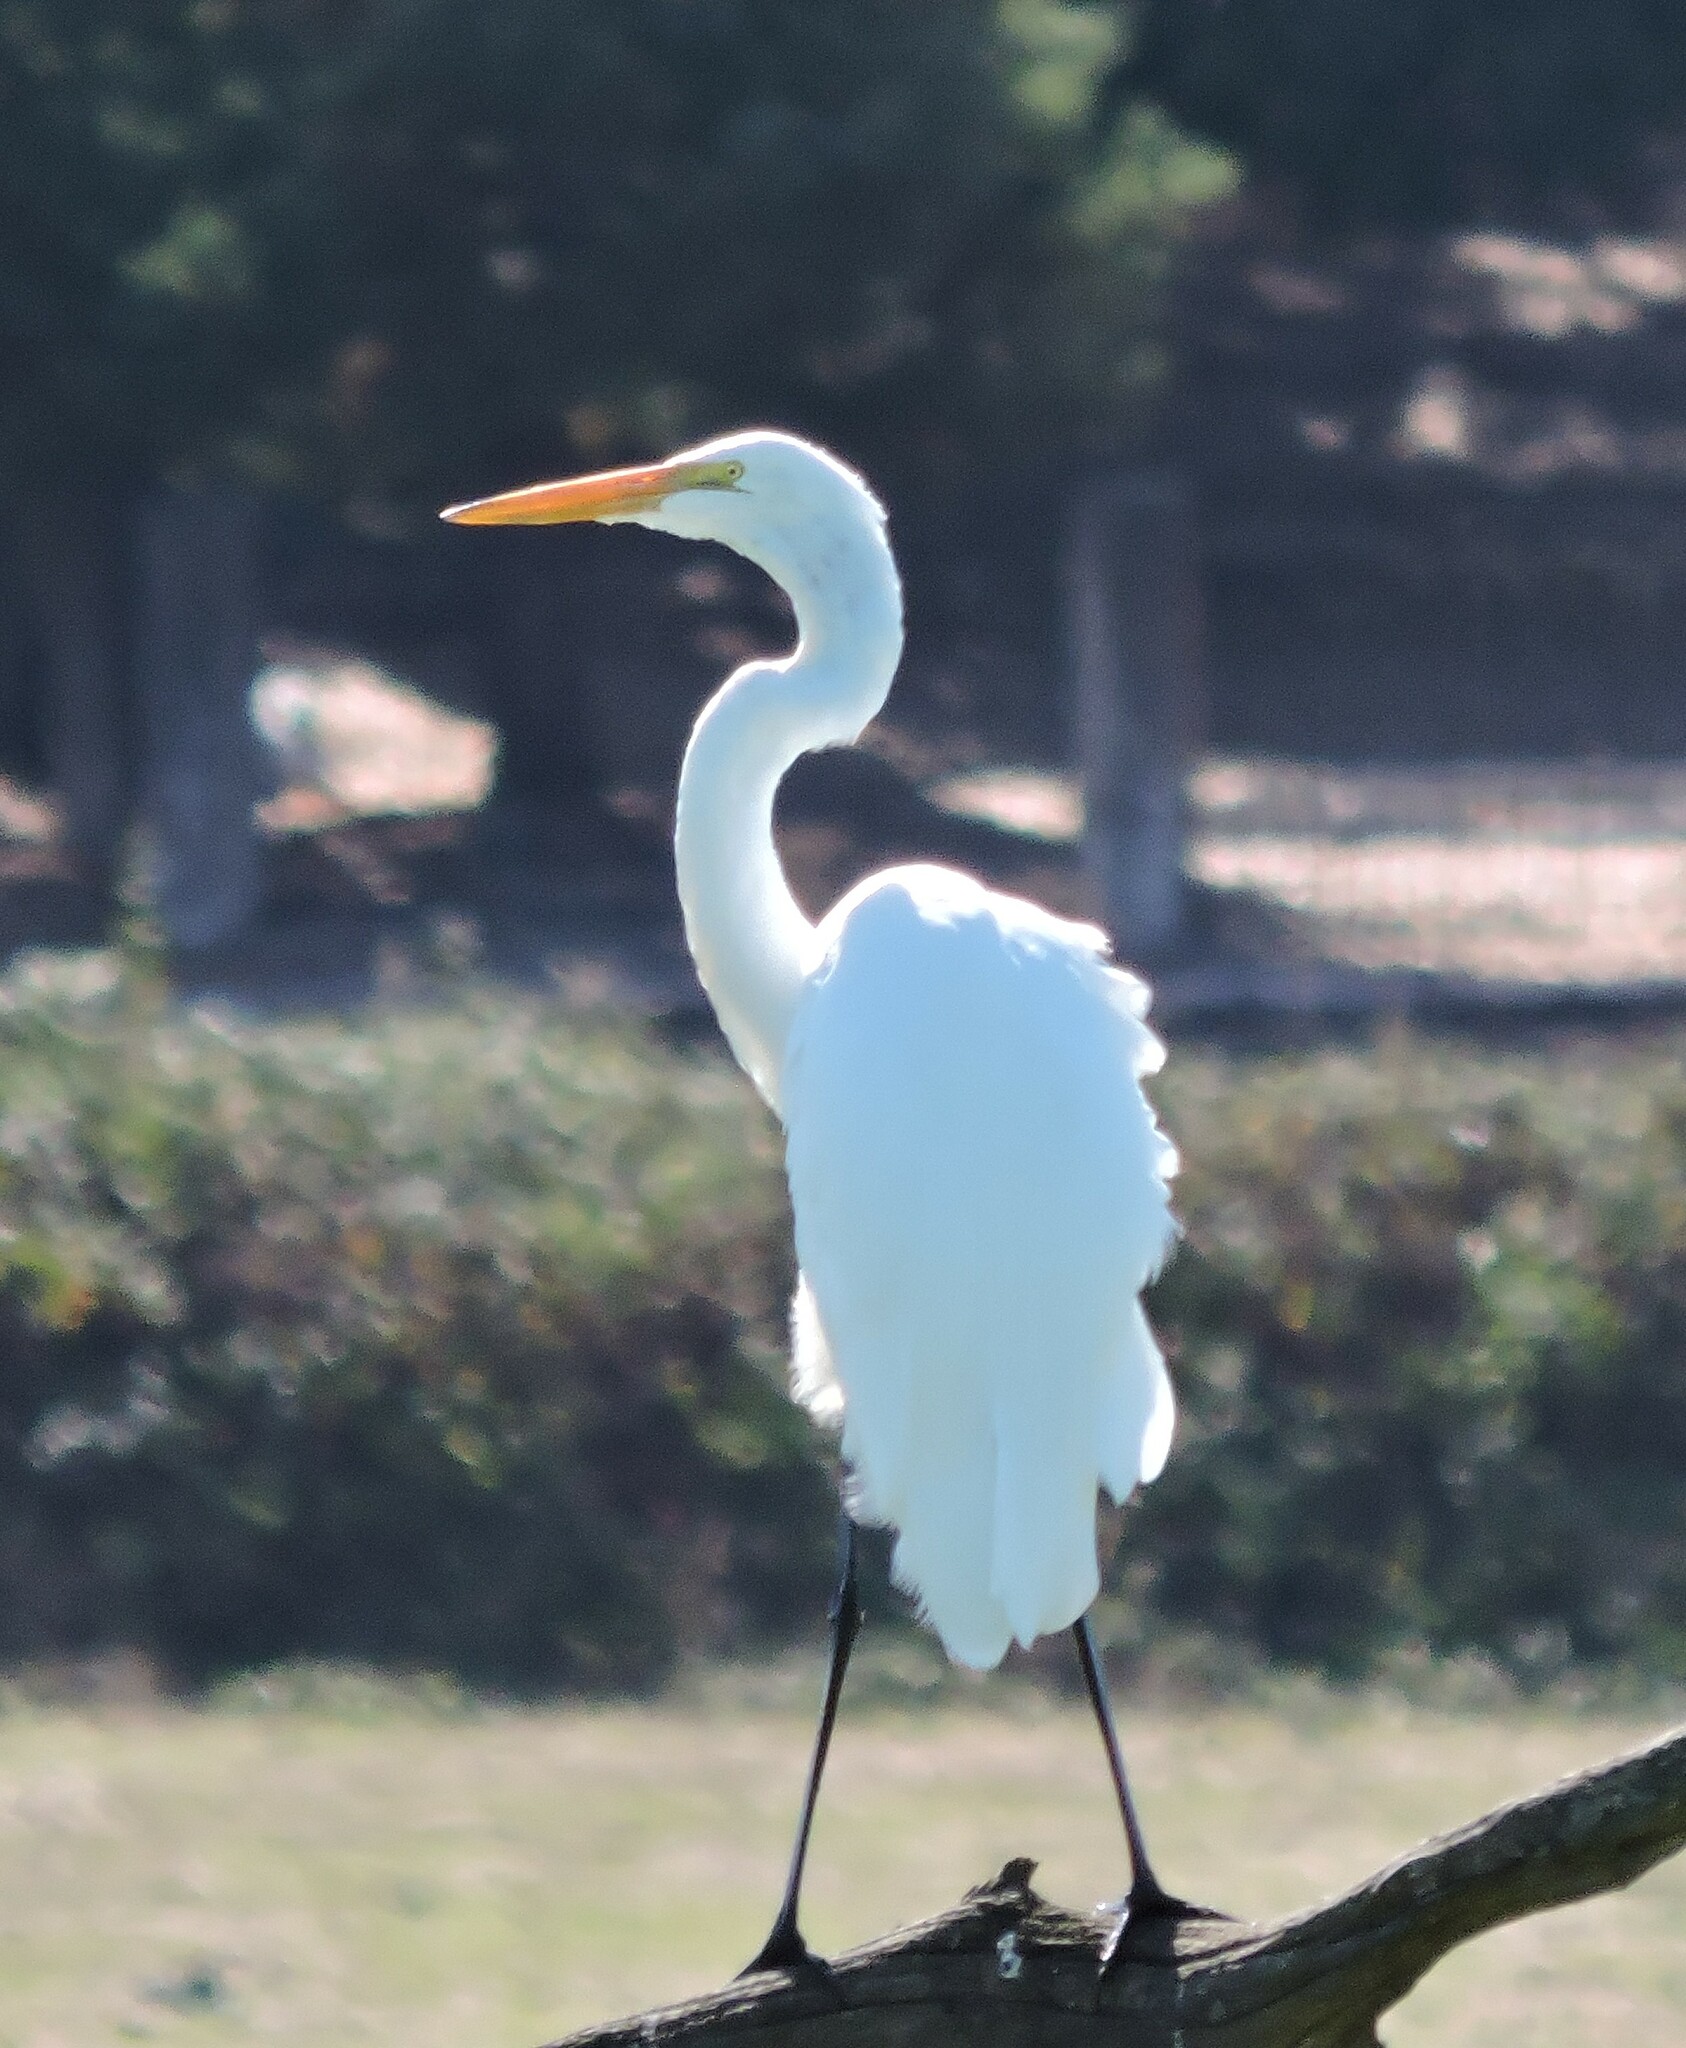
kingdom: Animalia
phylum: Chordata
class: Aves
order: Pelecaniformes
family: Ardeidae
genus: Ardea
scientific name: Ardea alba
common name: Great egret
